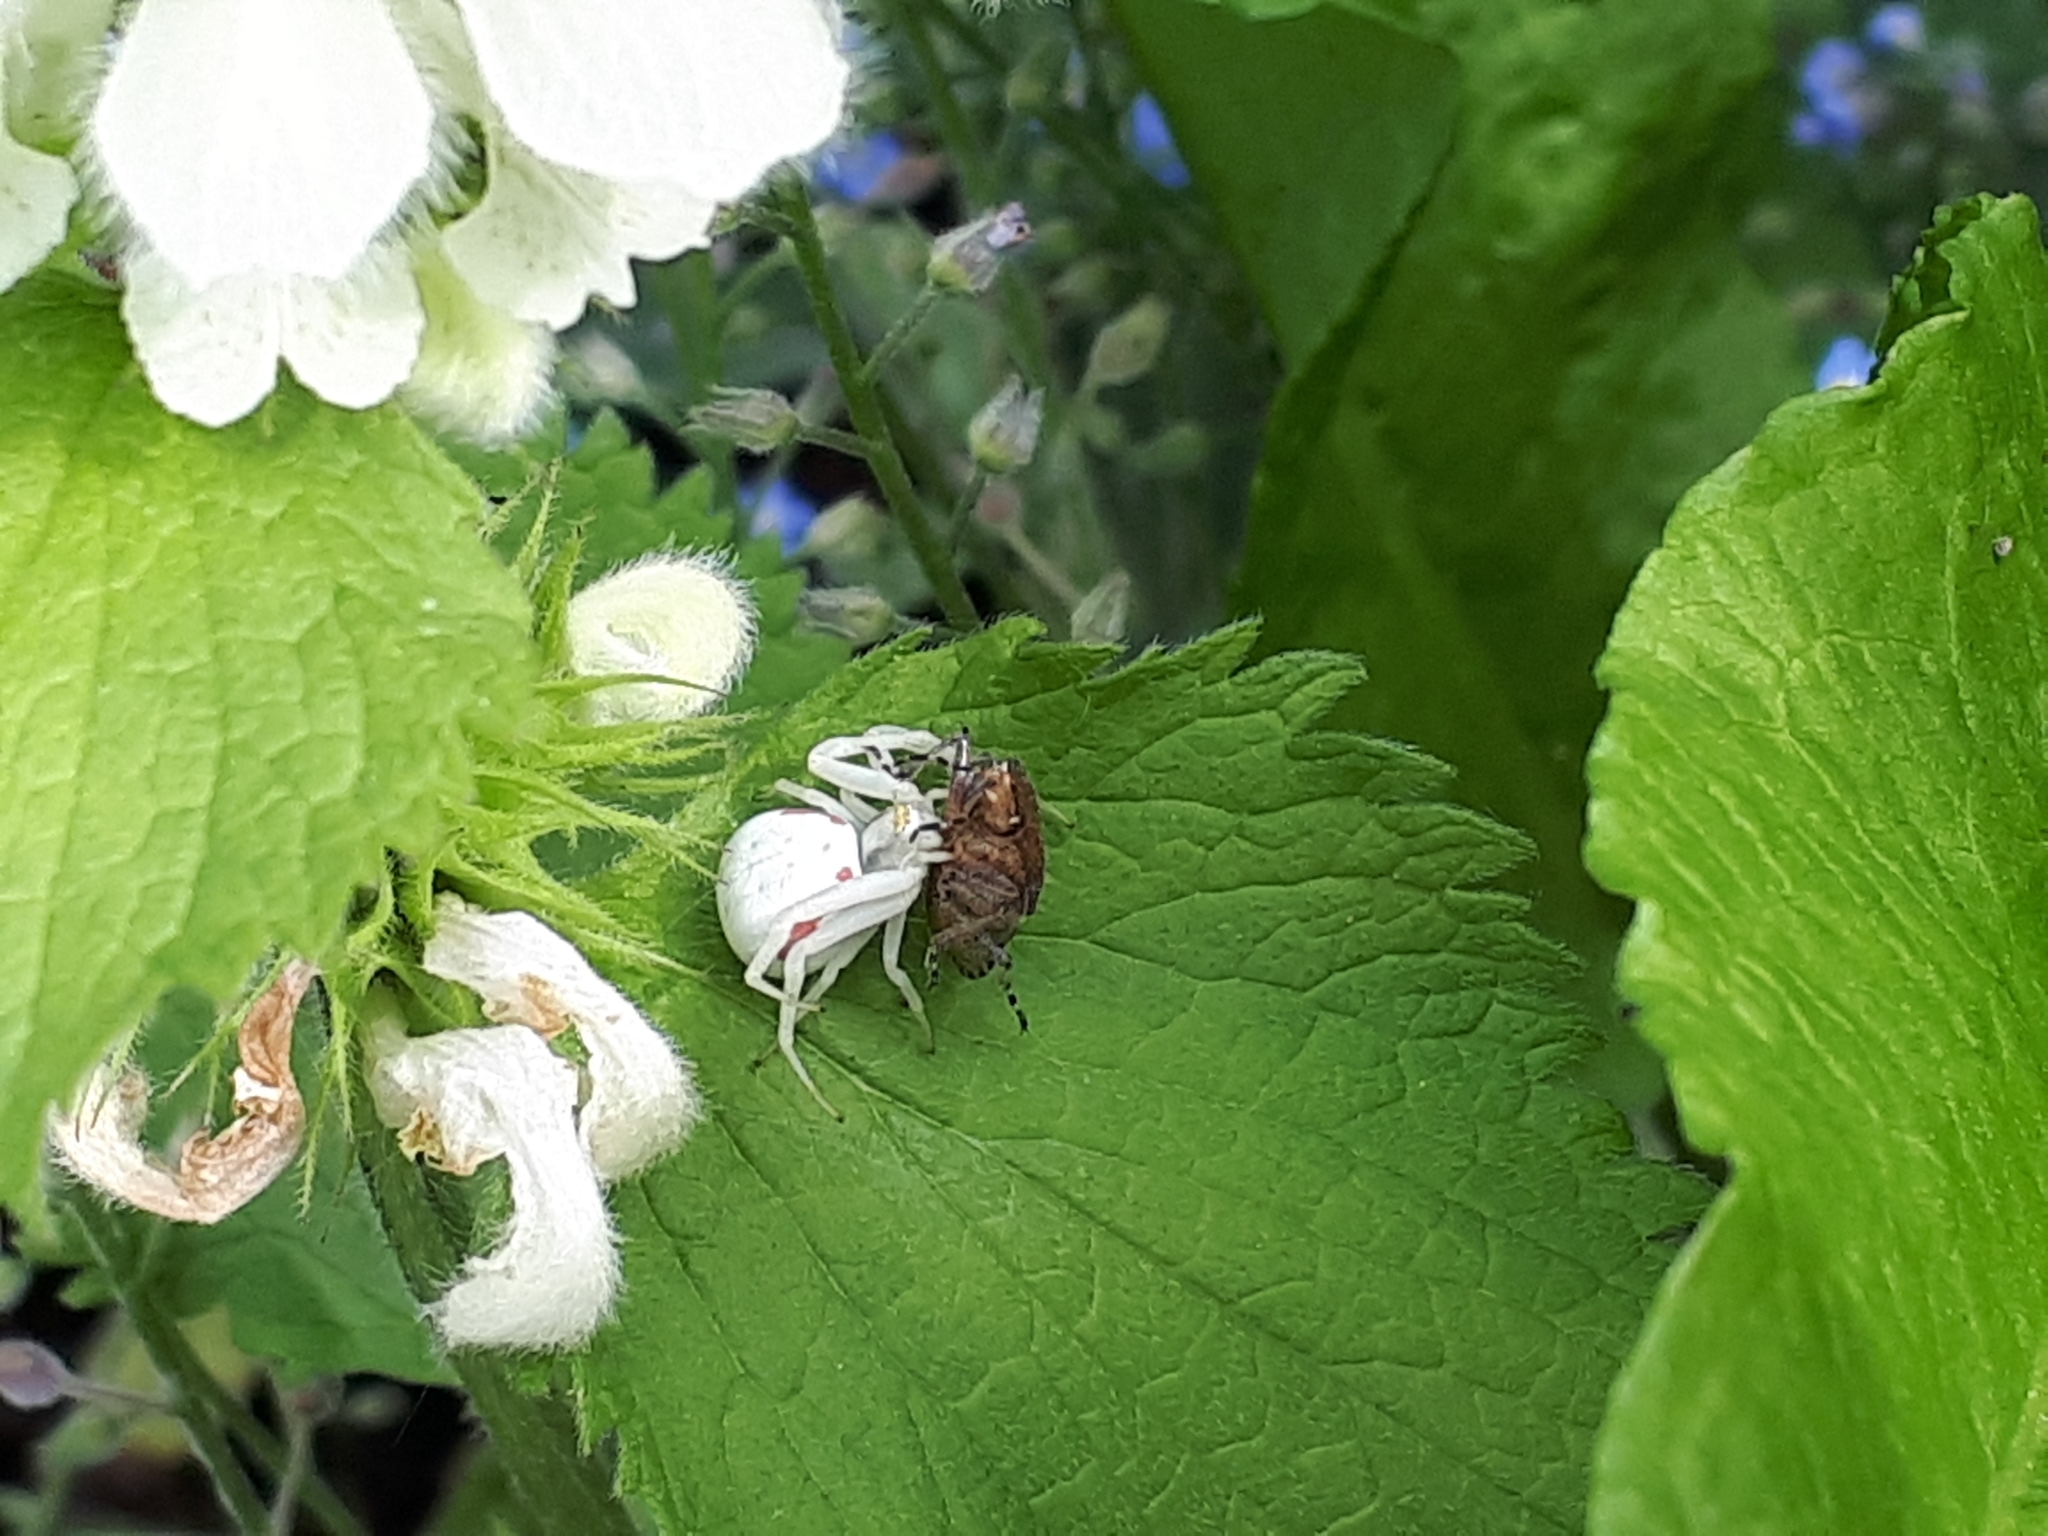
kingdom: Animalia
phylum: Arthropoda
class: Arachnida
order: Araneae
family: Thomisidae
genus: Misumena
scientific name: Misumena vatia
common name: Goldenrod crab spider
